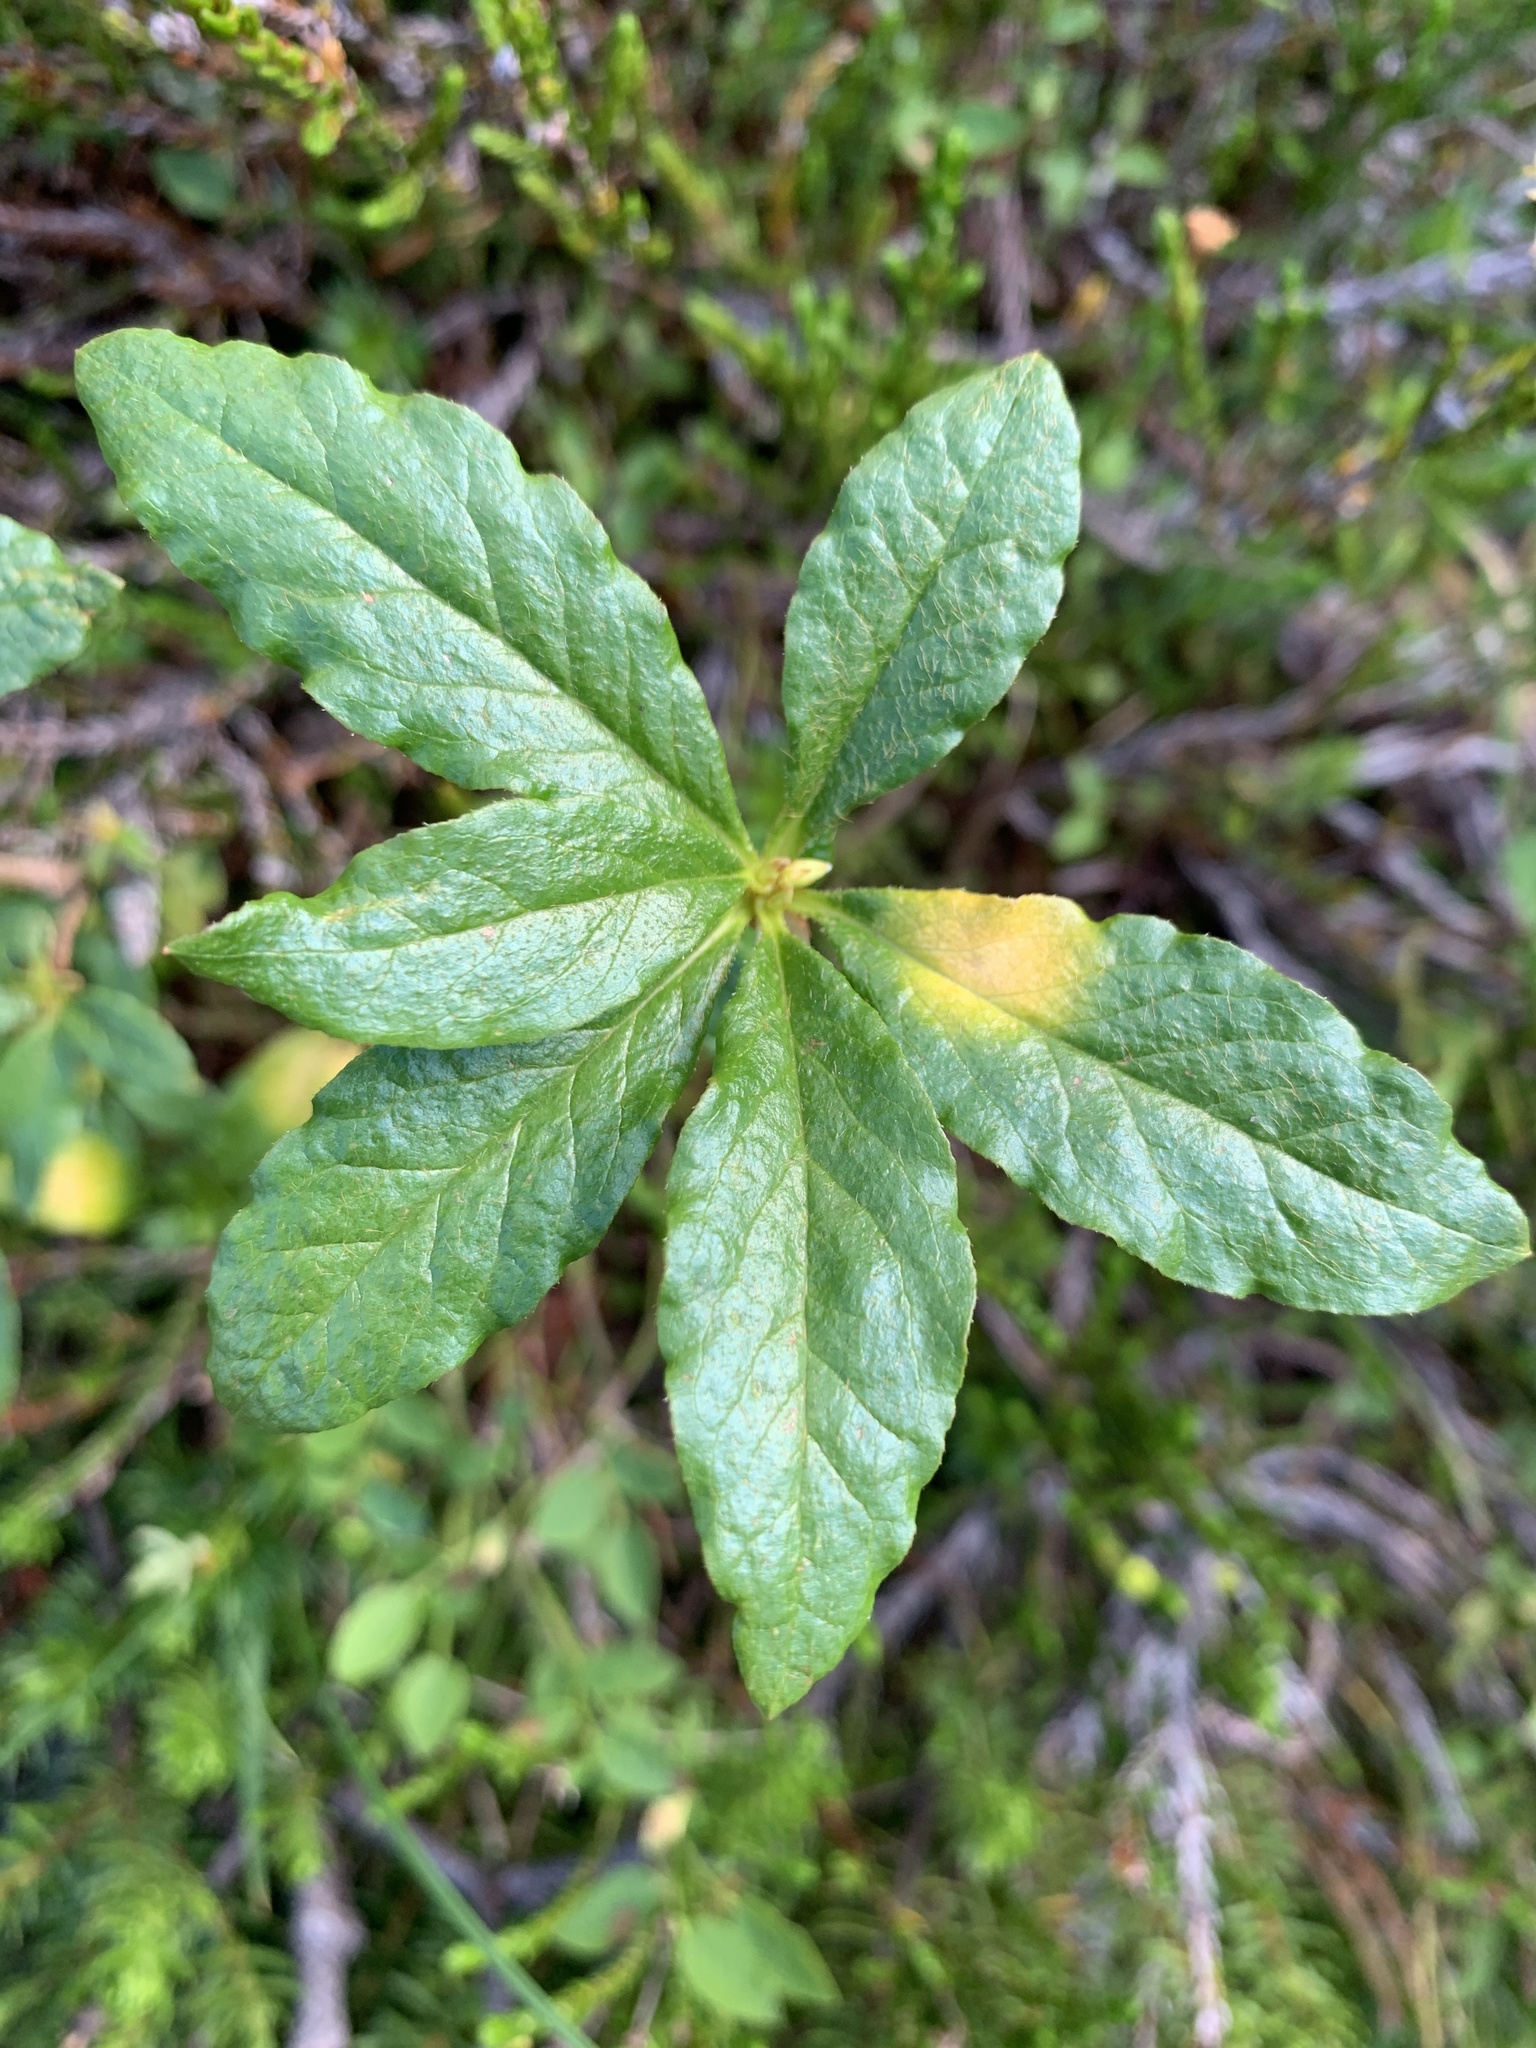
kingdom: Plantae
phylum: Tracheophyta
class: Magnoliopsida
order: Ericales
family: Ericaceae
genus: Rhododendron
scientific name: Rhododendron albiflorum
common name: White rhododendron
